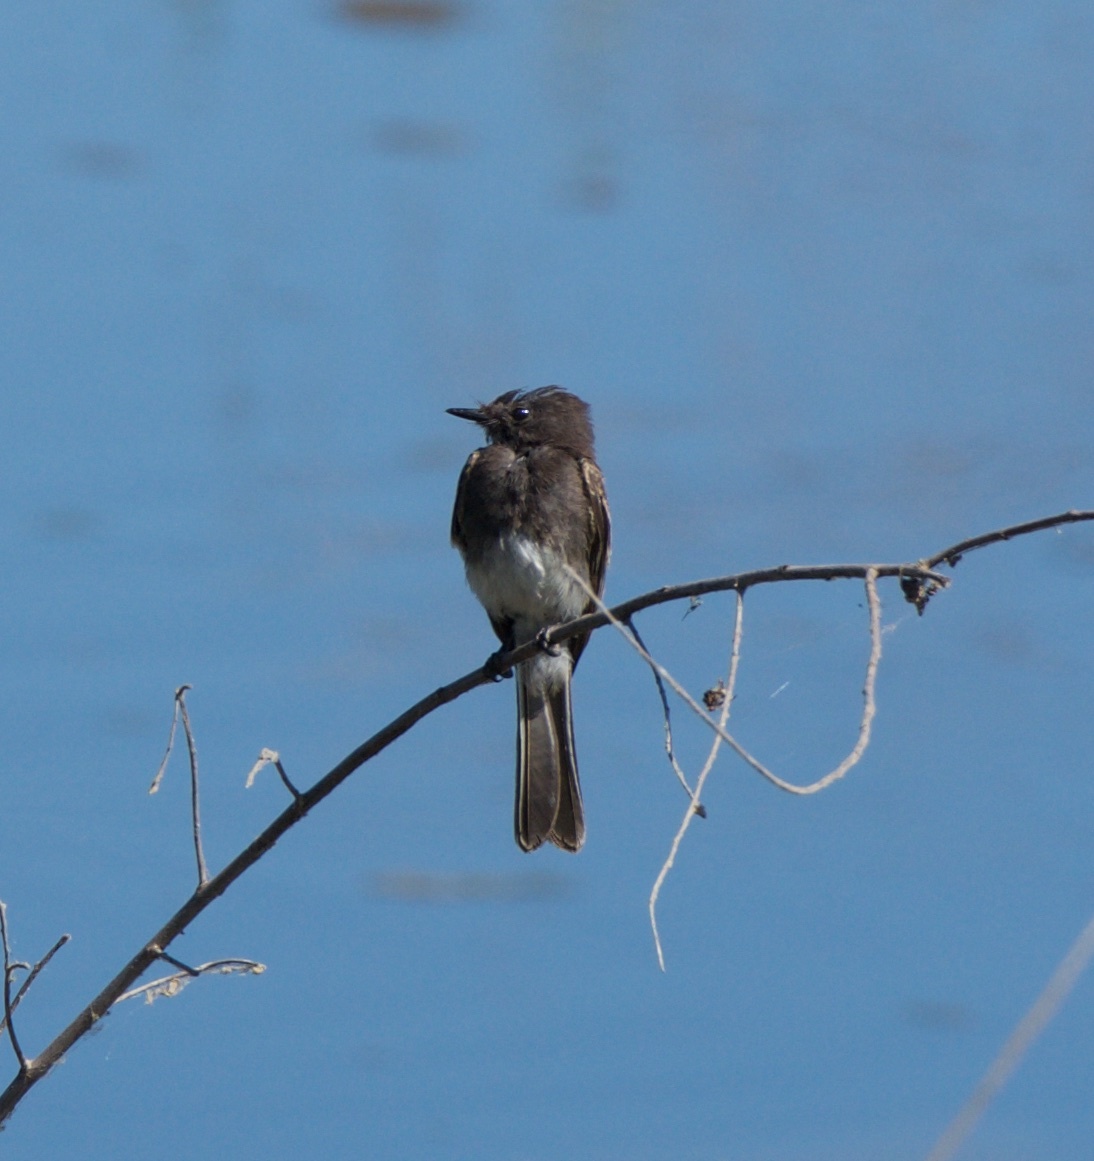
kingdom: Animalia
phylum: Chordata
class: Aves
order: Passeriformes
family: Tyrannidae
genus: Sayornis
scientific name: Sayornis nigricans
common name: Black phoebe
